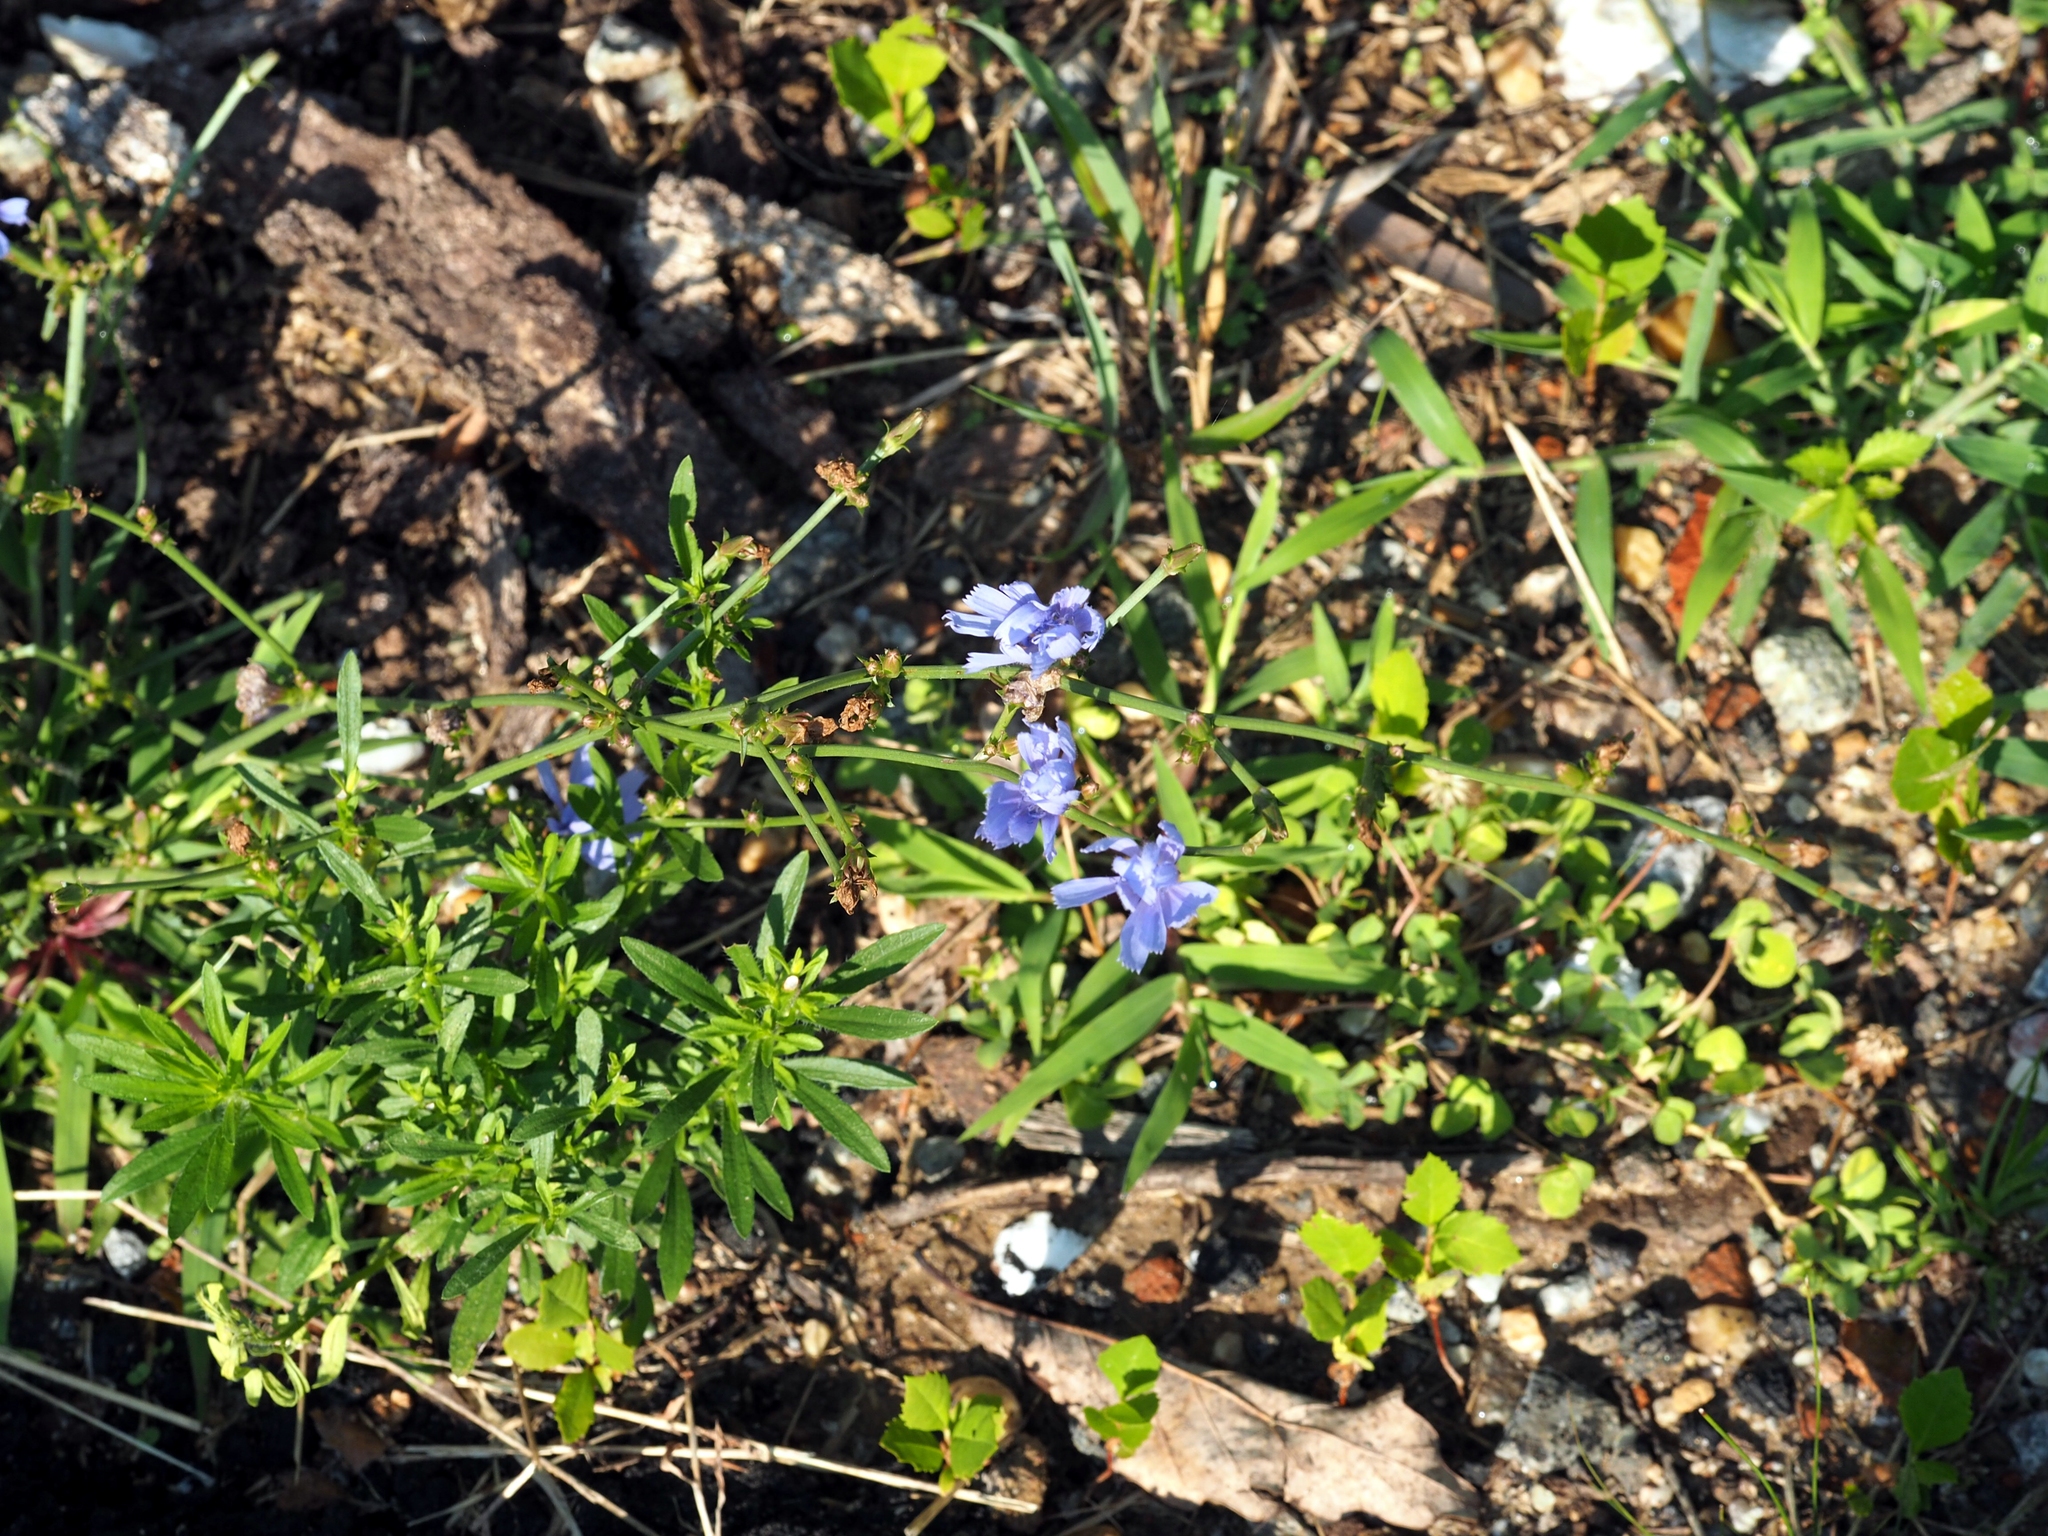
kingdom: Plantae
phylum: Tracheophyta
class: Magnoliopsida
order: Asterales
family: Asteraceae
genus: Cichorium
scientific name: Cichorium intybus
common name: Chicory
